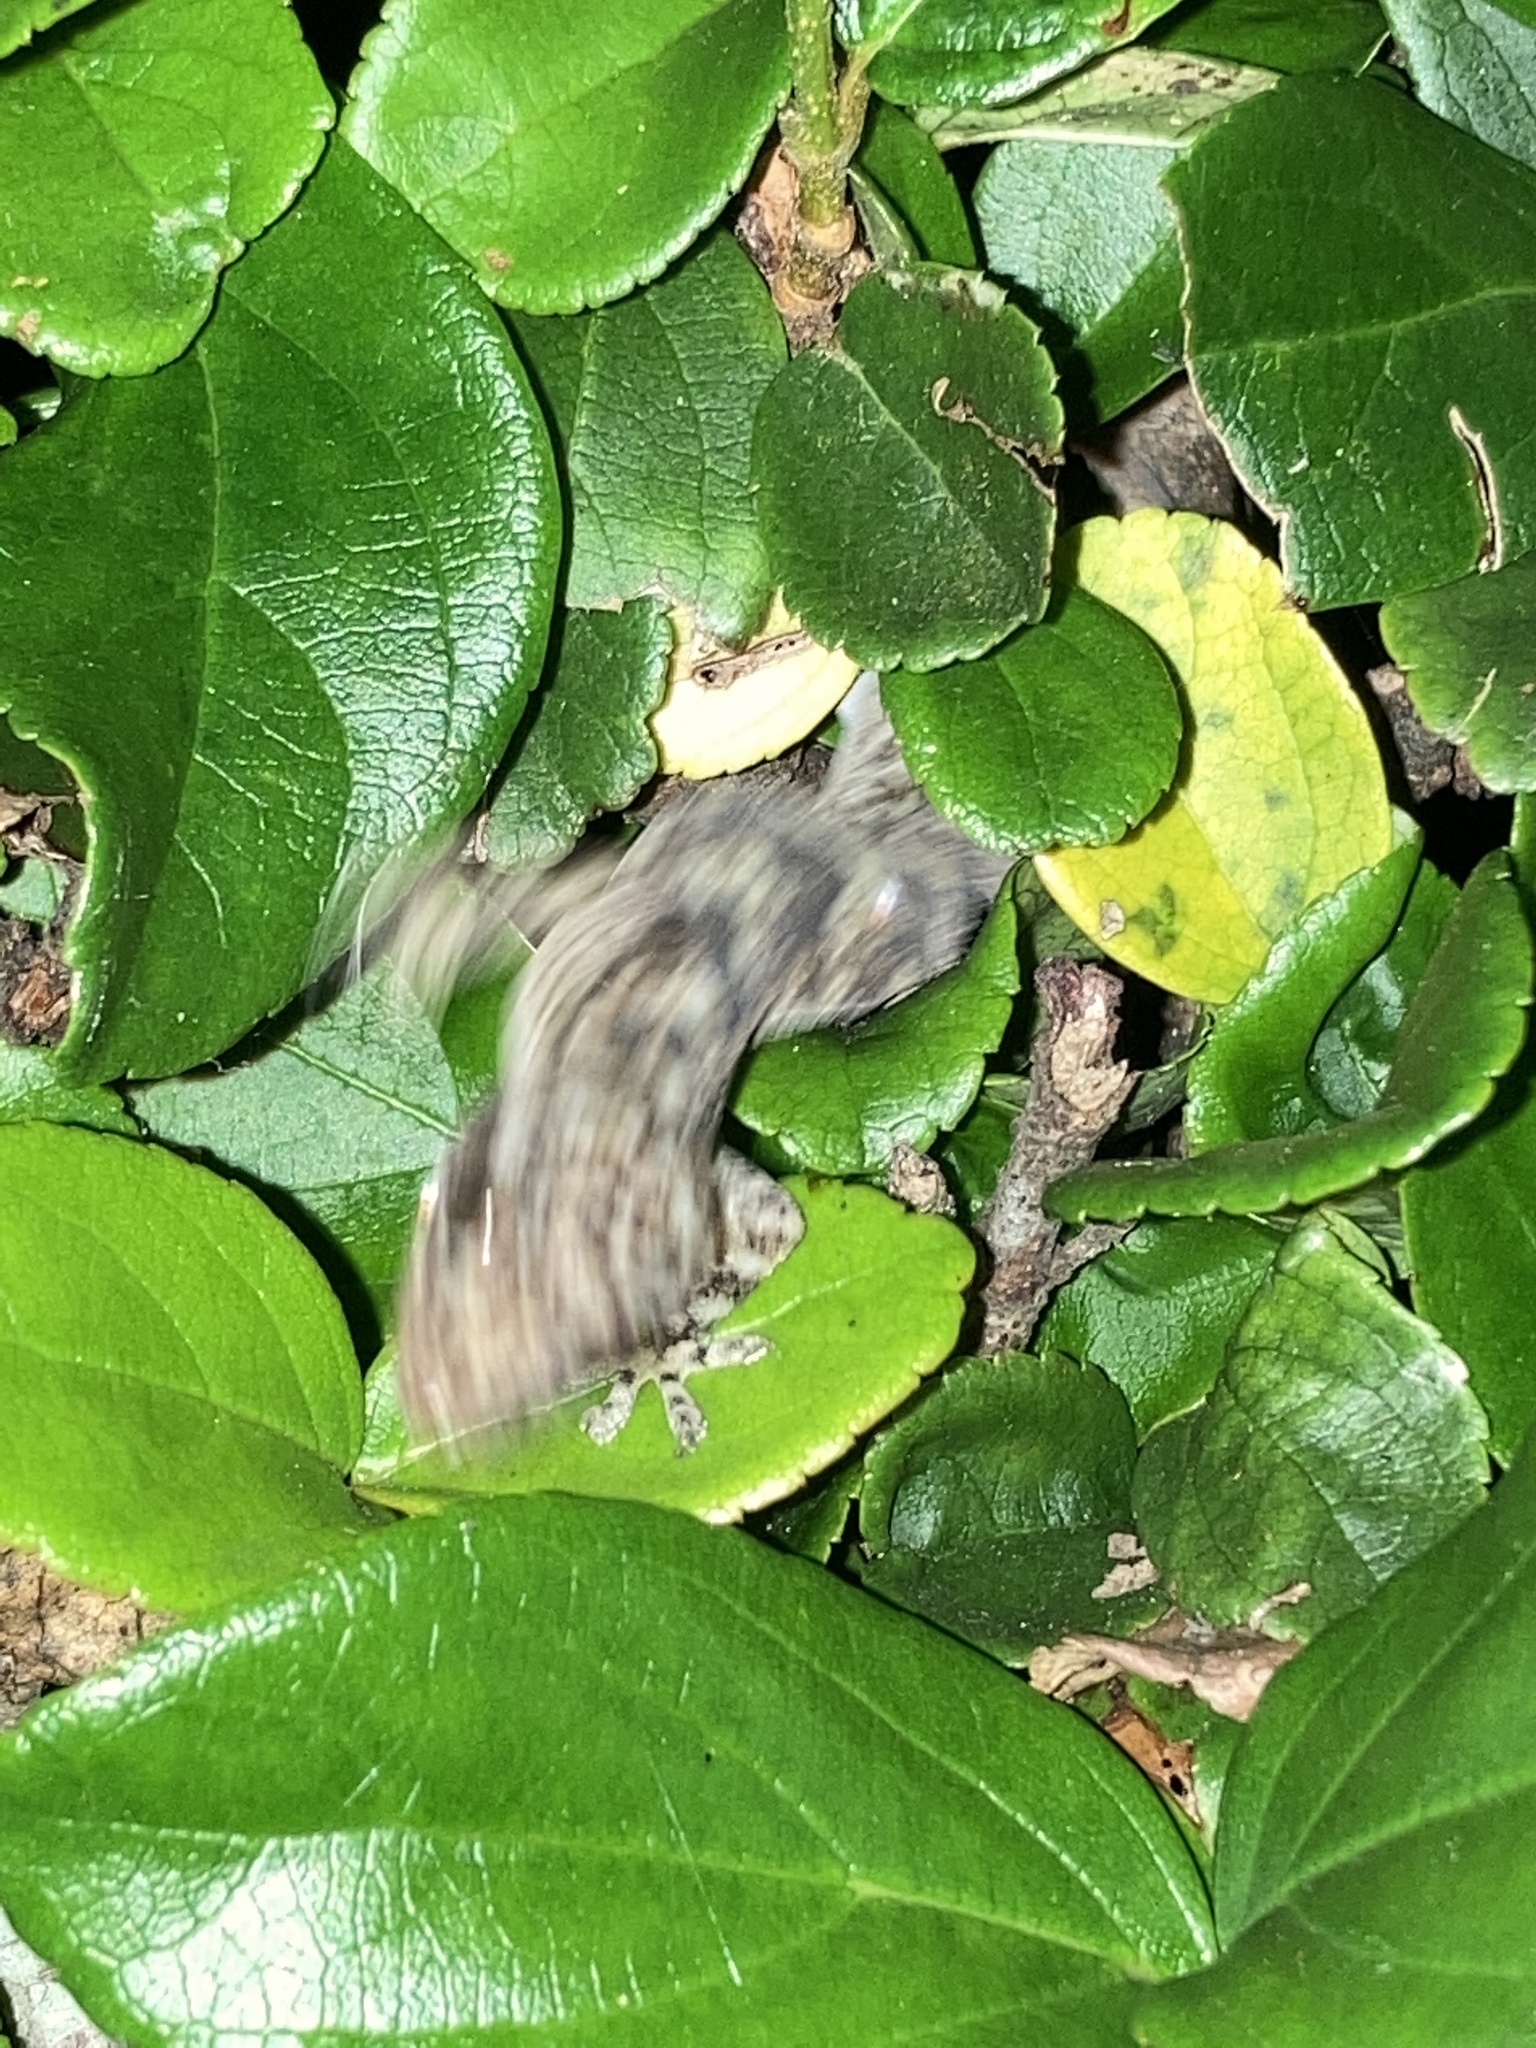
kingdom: Animalia
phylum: Chordata
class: Squamata
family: Gekkonidae
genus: Hemidactylus
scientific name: Hemidactylus mabouia
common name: House gecko
